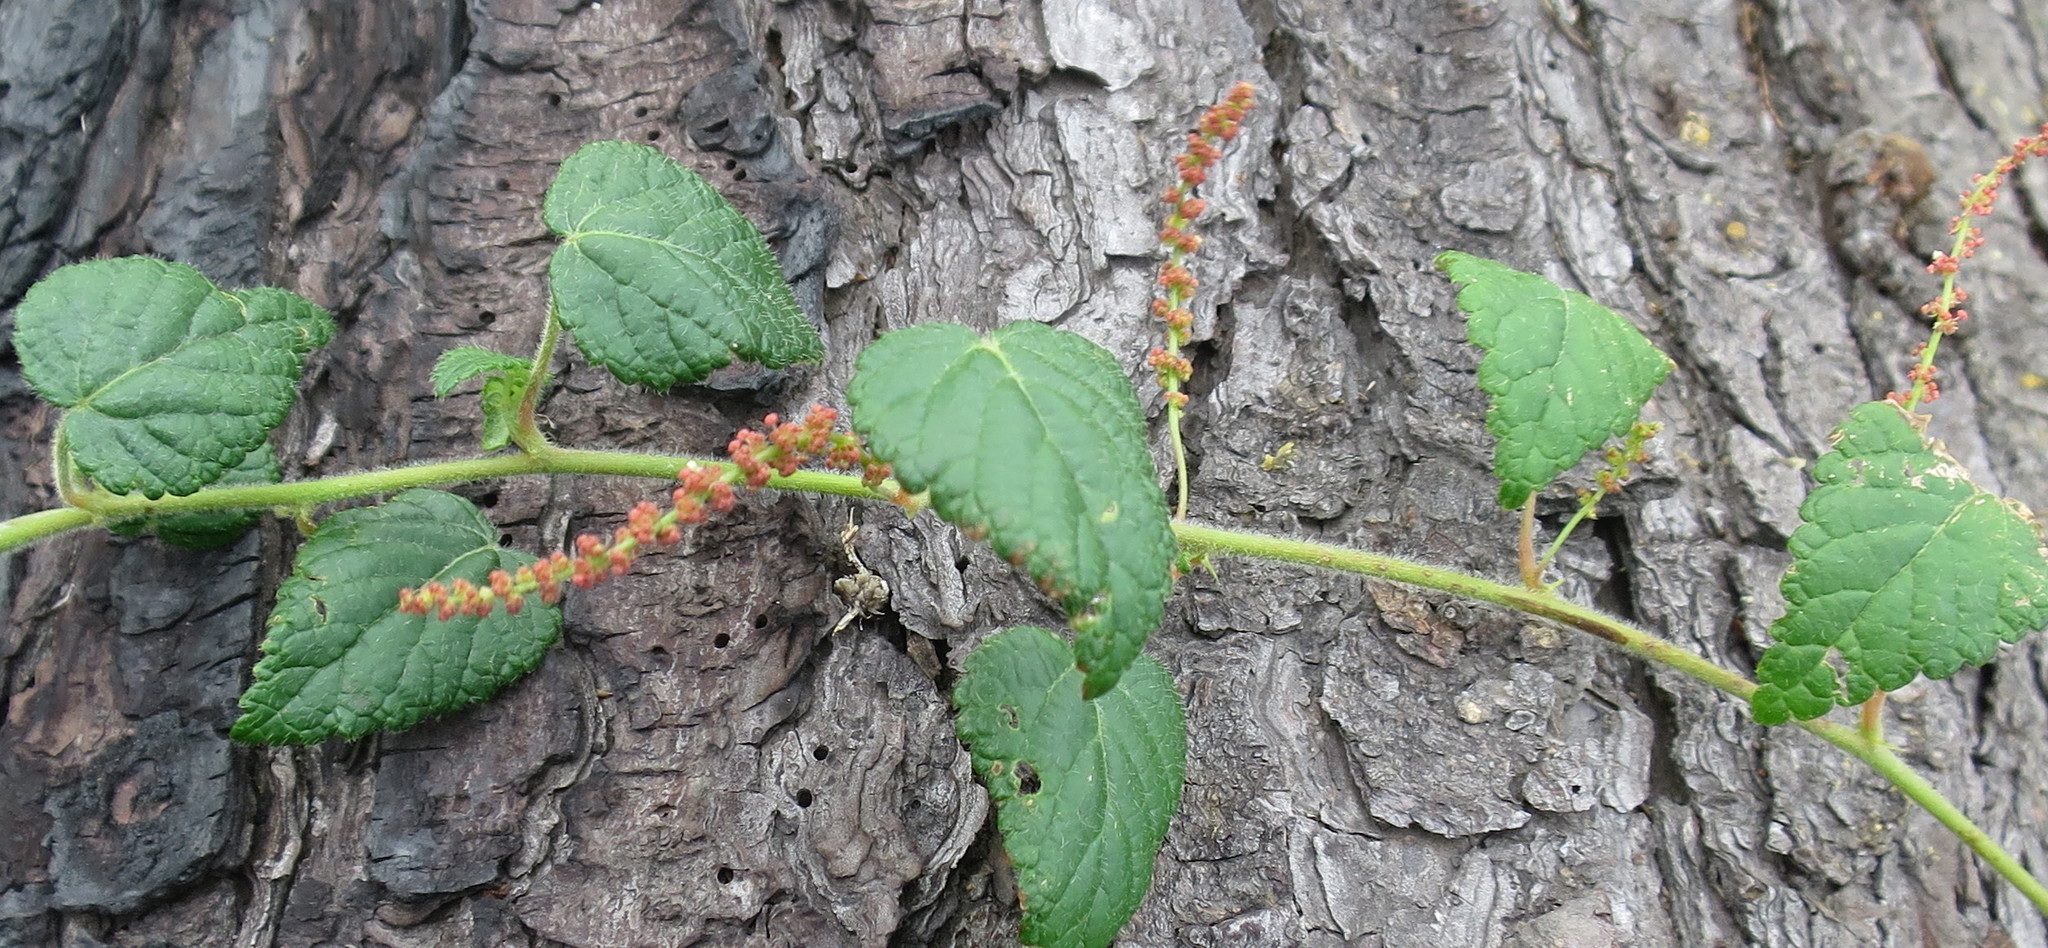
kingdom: Plantae
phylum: Tracheophyta
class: Magnoliopsida
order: Malpighiales
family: Euphorbiaceae
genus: Bernardia
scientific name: Bernardia corensis
